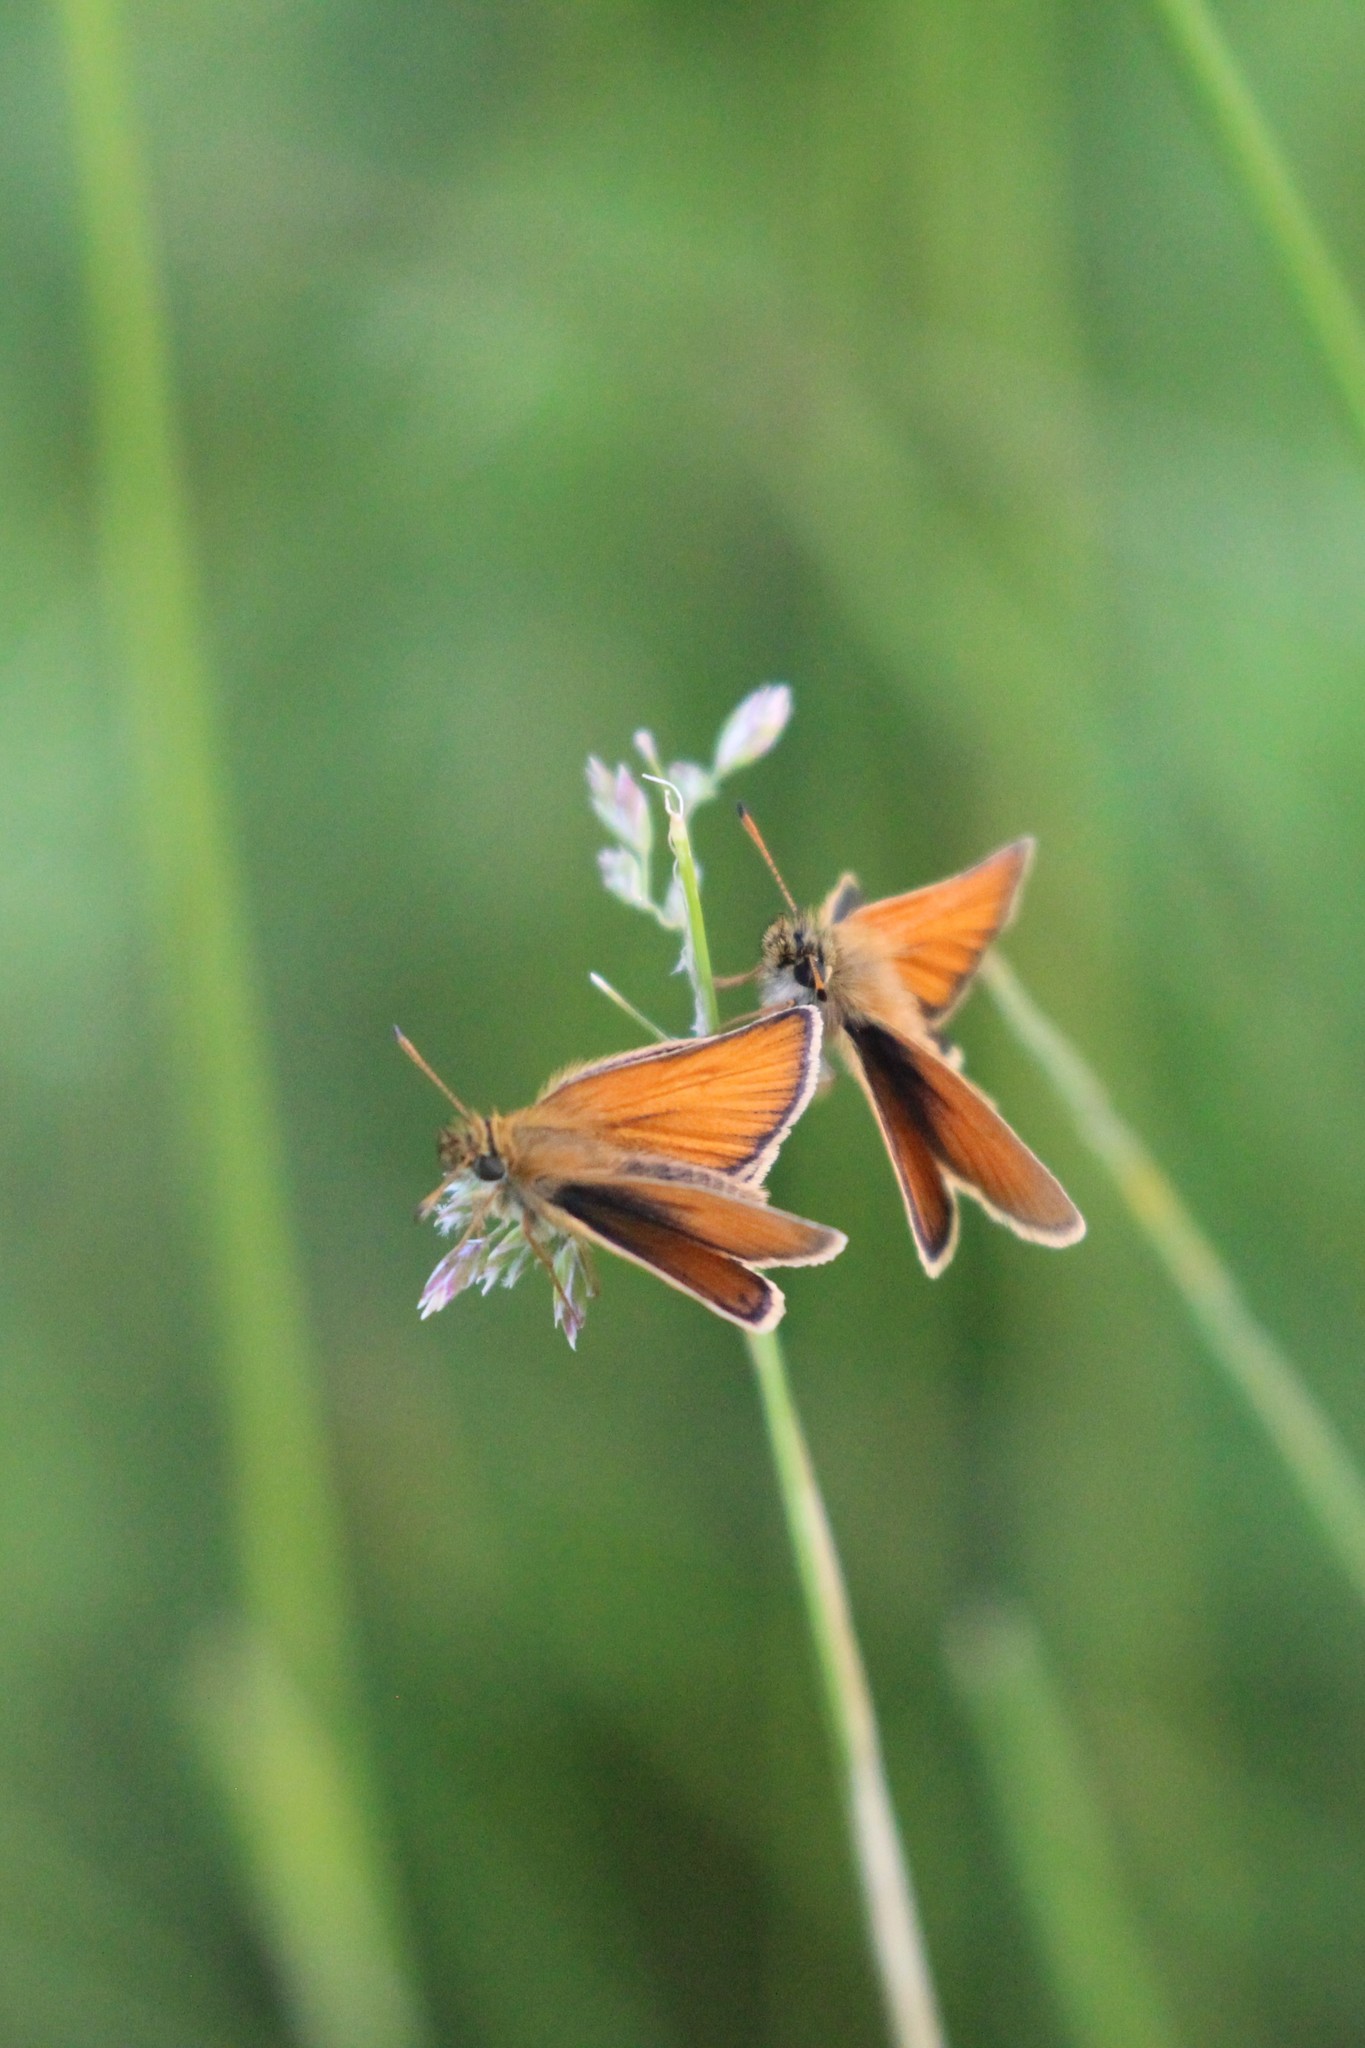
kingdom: Animalia
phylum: Arthropoda
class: Insecta
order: Lepidoptera
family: Hesperiidae
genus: Thymelicus
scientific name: Thymelicus lineola
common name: Essex skipper
